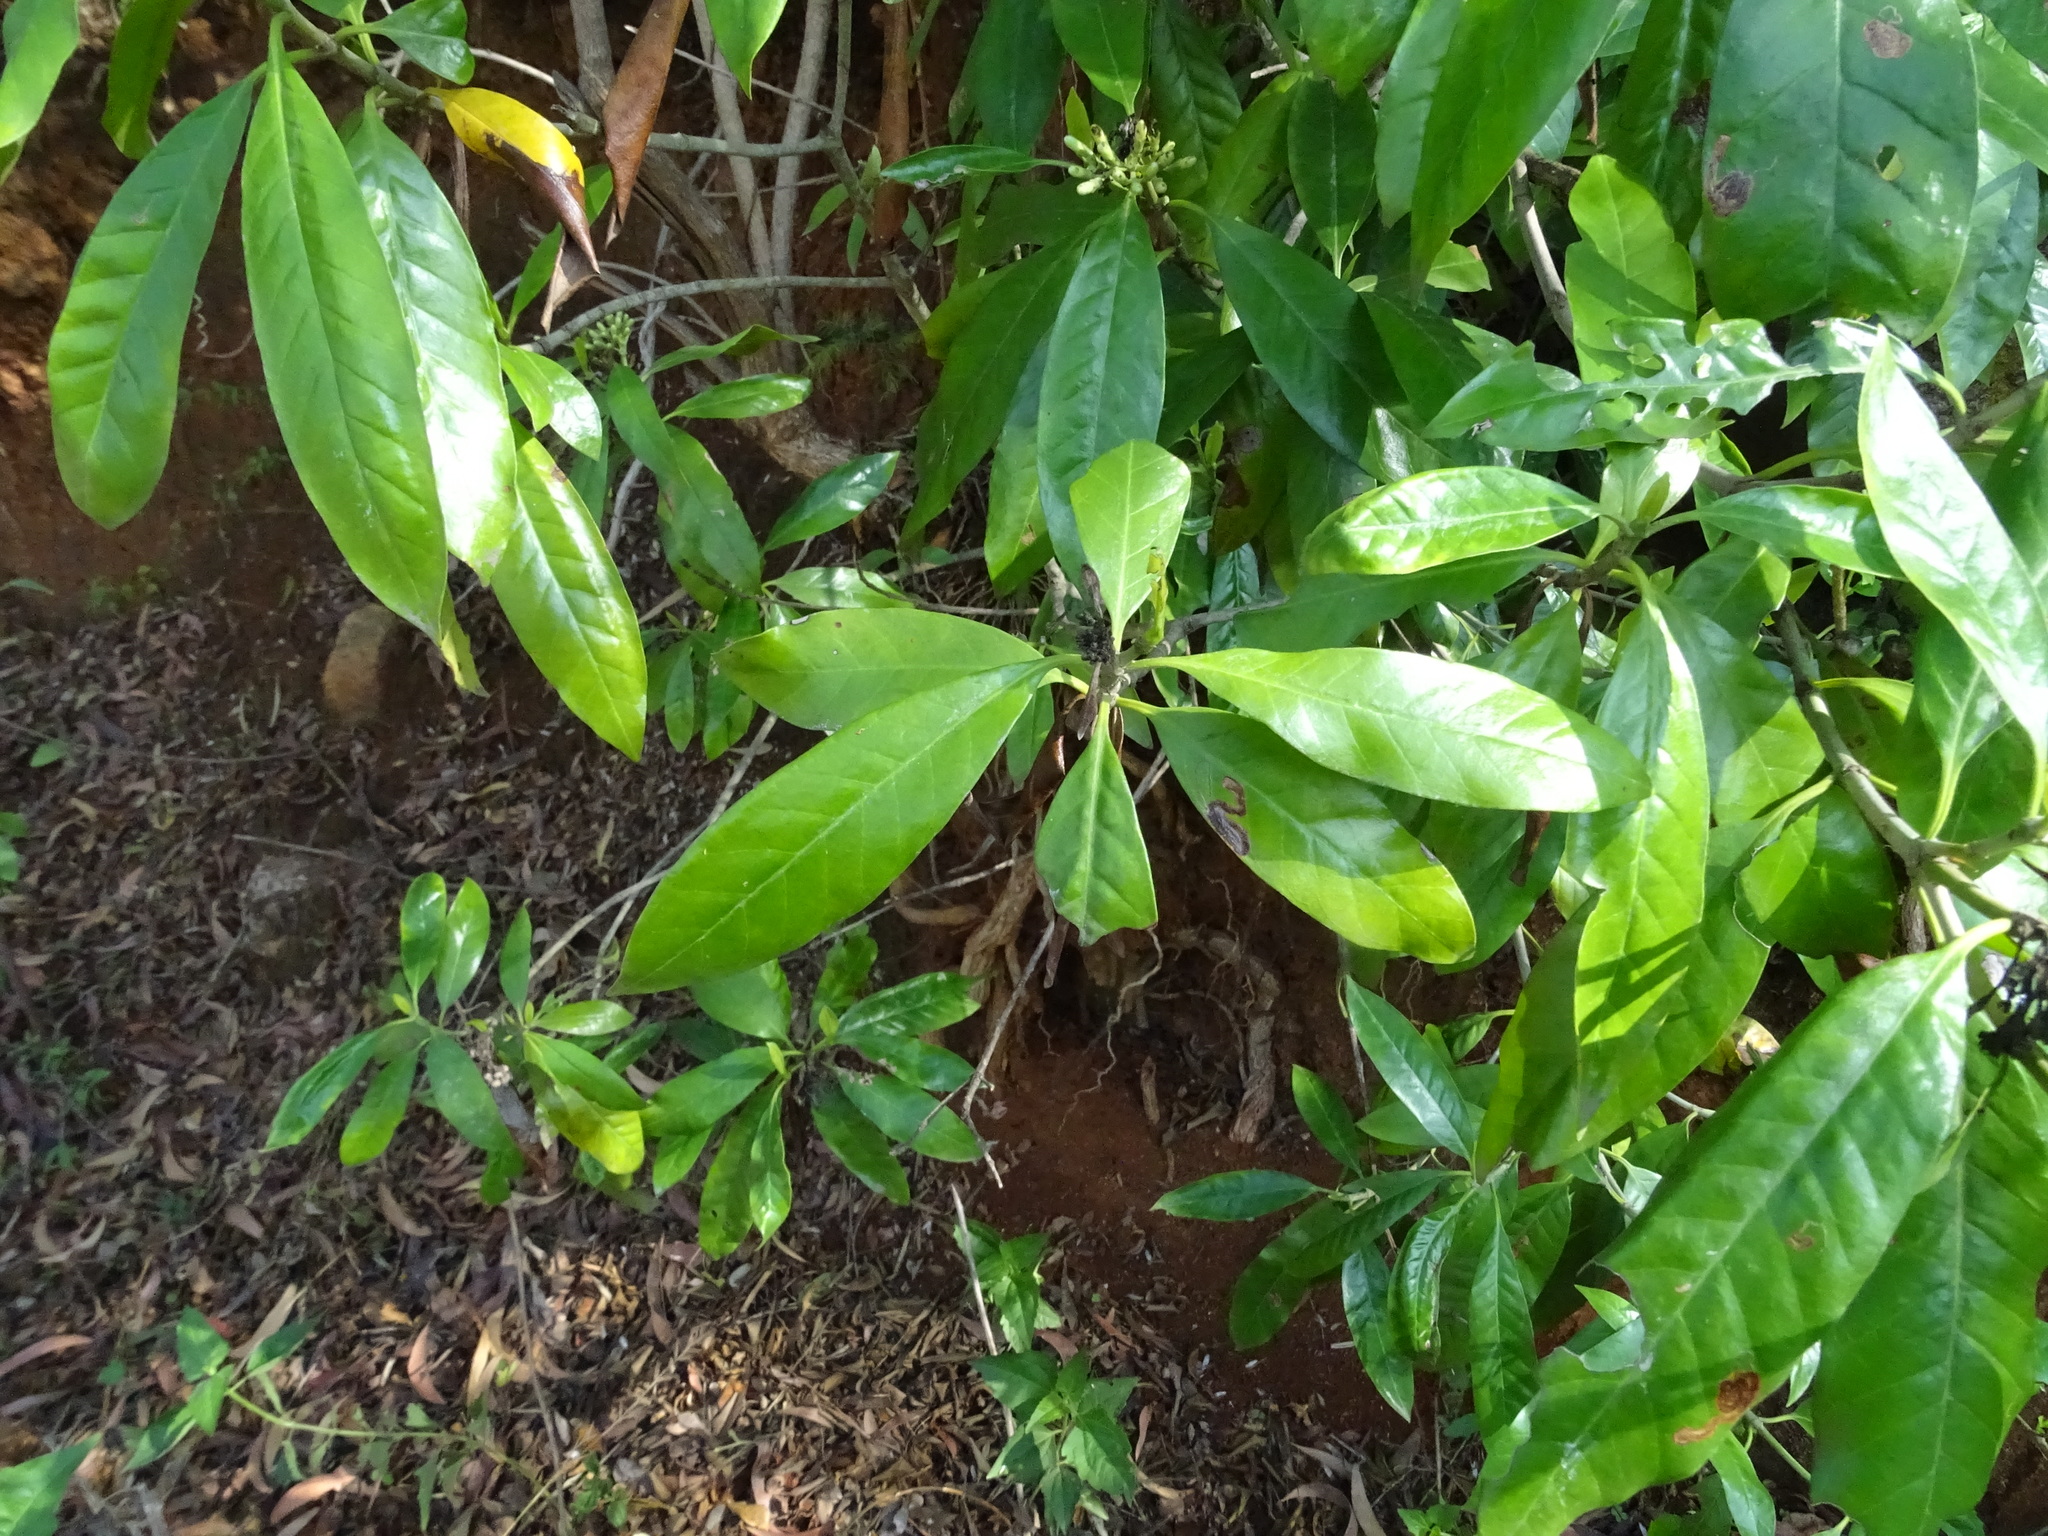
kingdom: Plantae
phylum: Tracheophyta
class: Magnoliopsida
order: Gentianales
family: Rubiaceae
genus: Tarenna
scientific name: Tarenna asiatica
